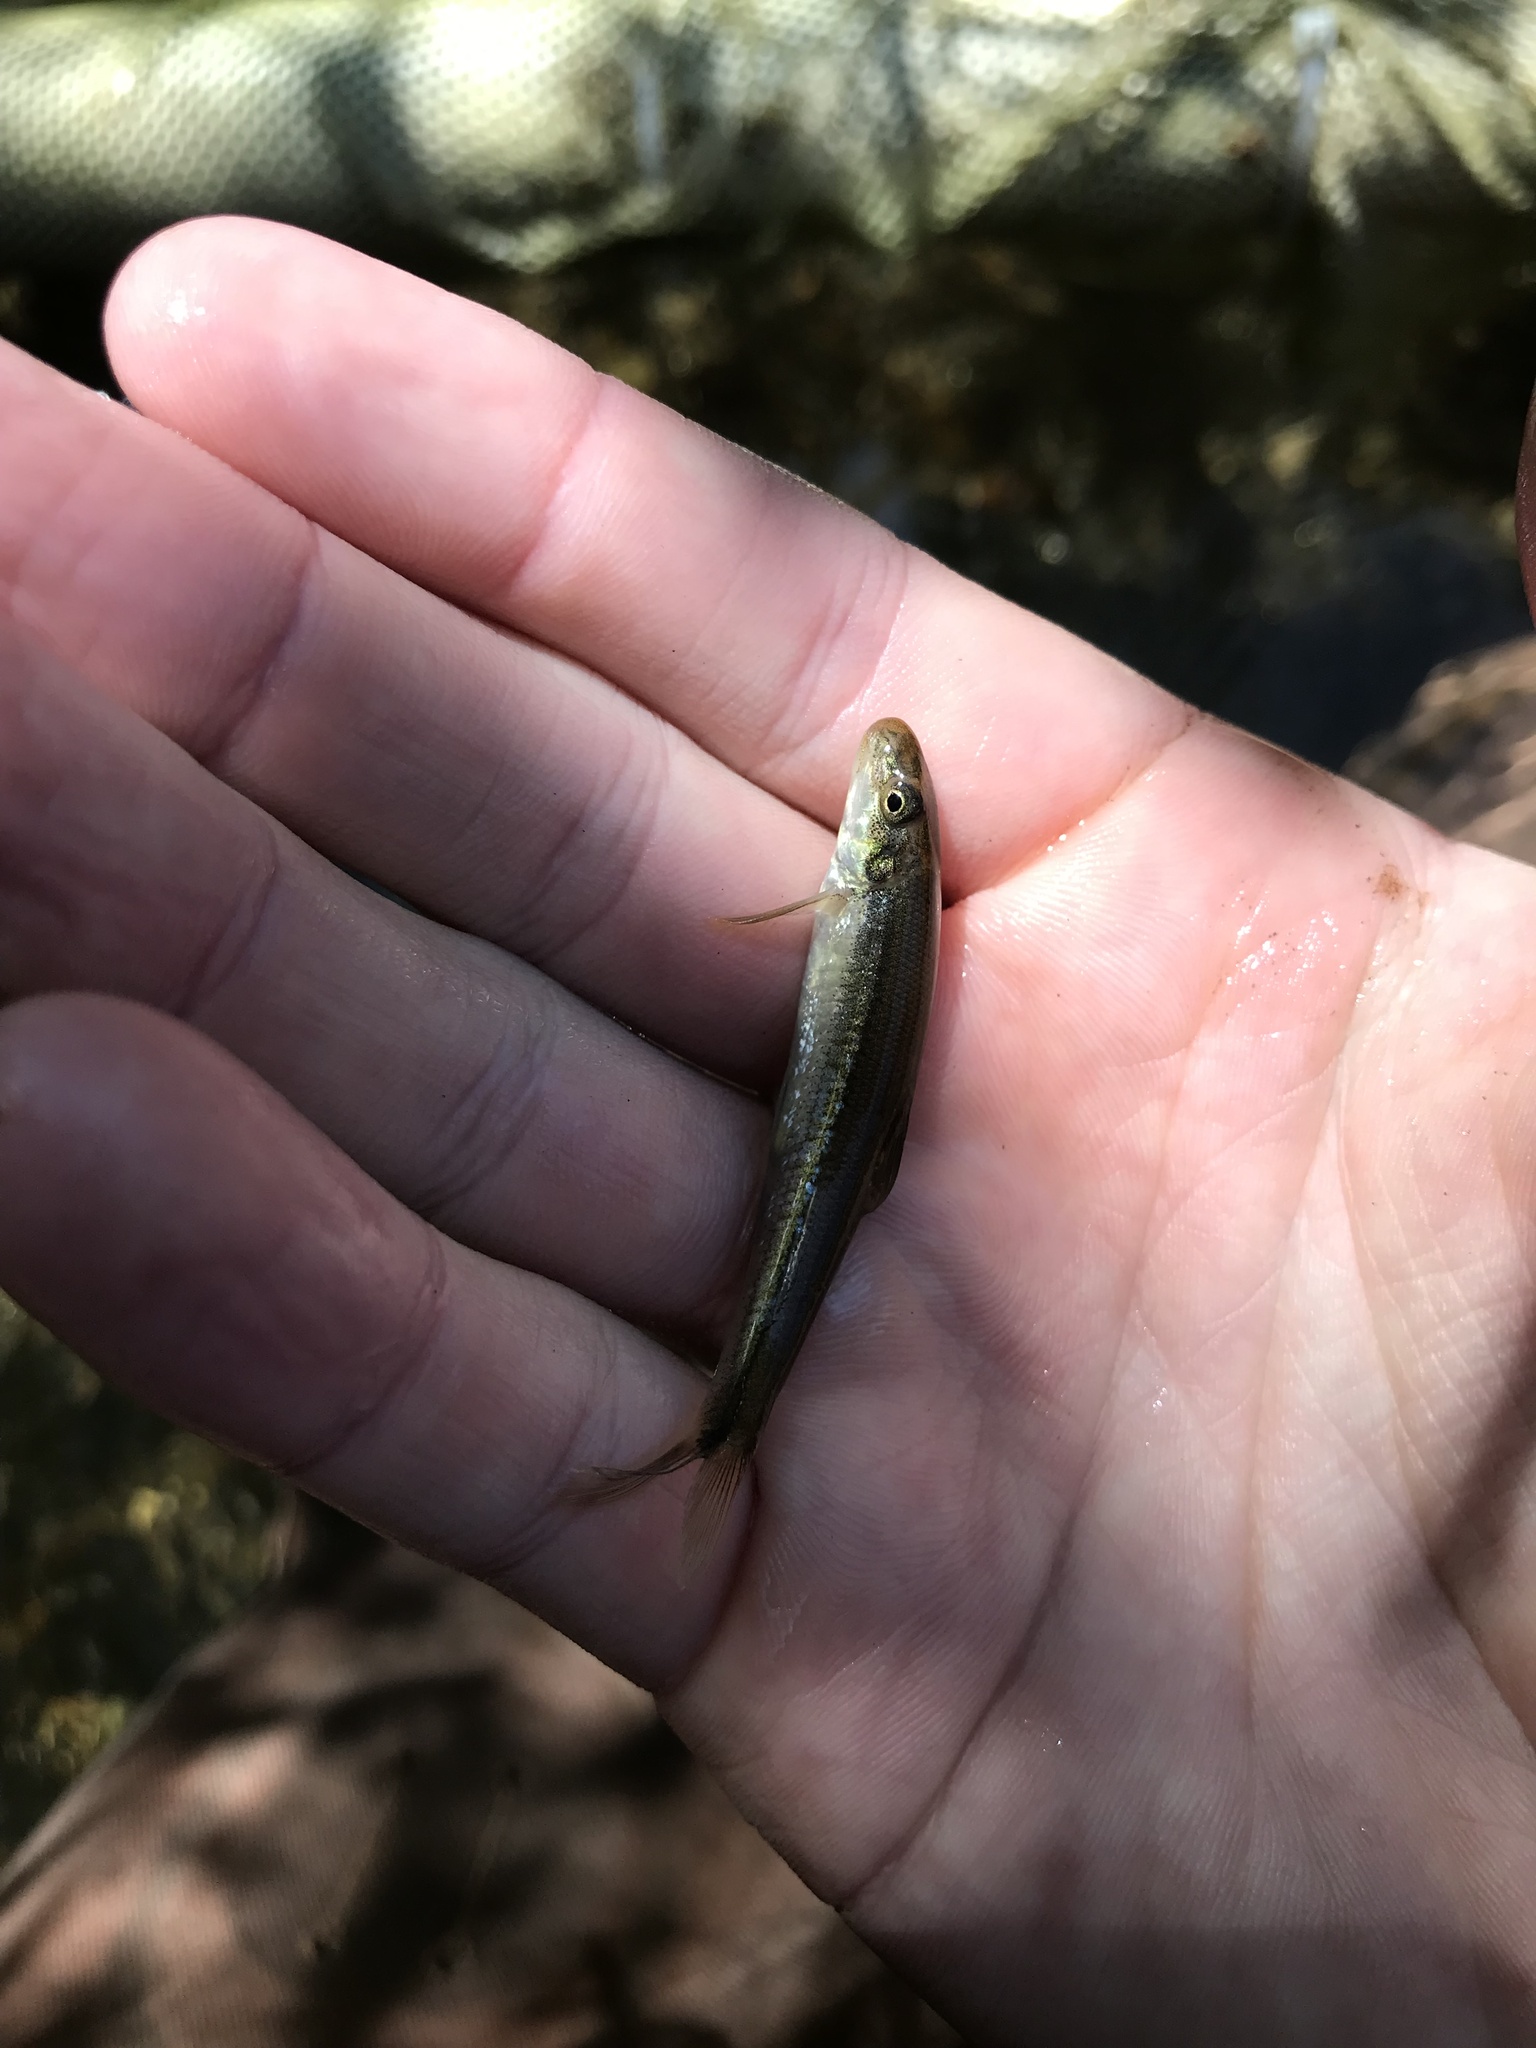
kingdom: Animalia
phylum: Chordata
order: Cypriniformes
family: Cyprinidae
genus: Phenacobius
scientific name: Phenacobius crassilabrum
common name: Fatlips minnow
